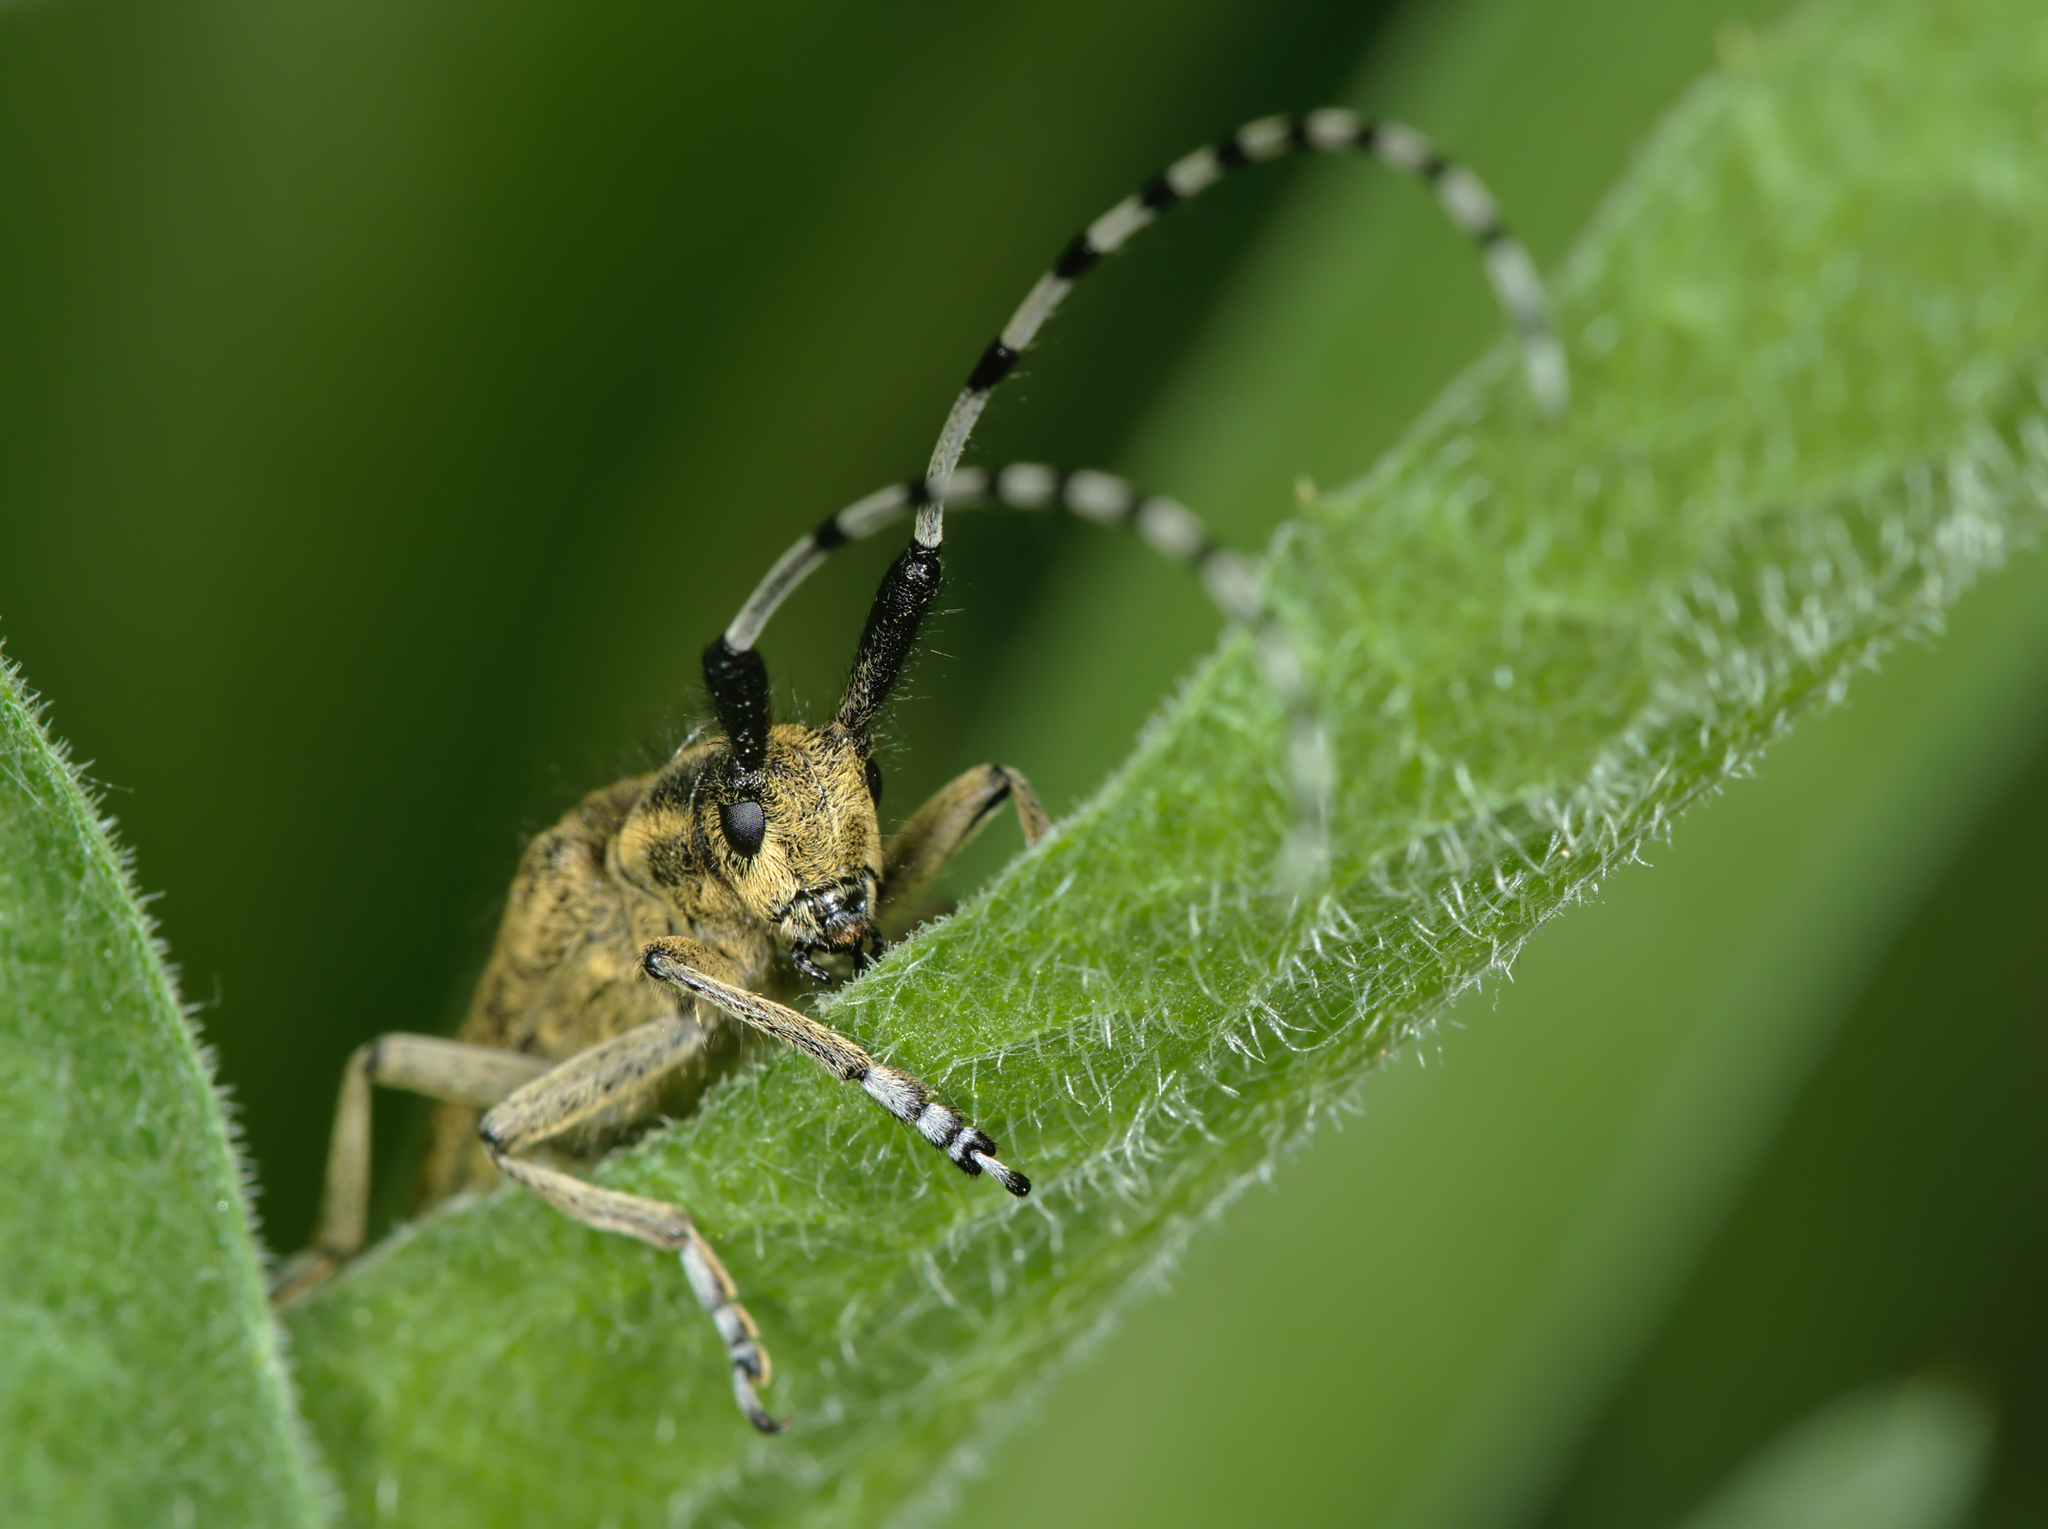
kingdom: Animalia
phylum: Arthropoda
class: Insecta
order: Coleoptera
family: Cerambycidae
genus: Agapanthia
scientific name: Agapanthia villosoviridescens
